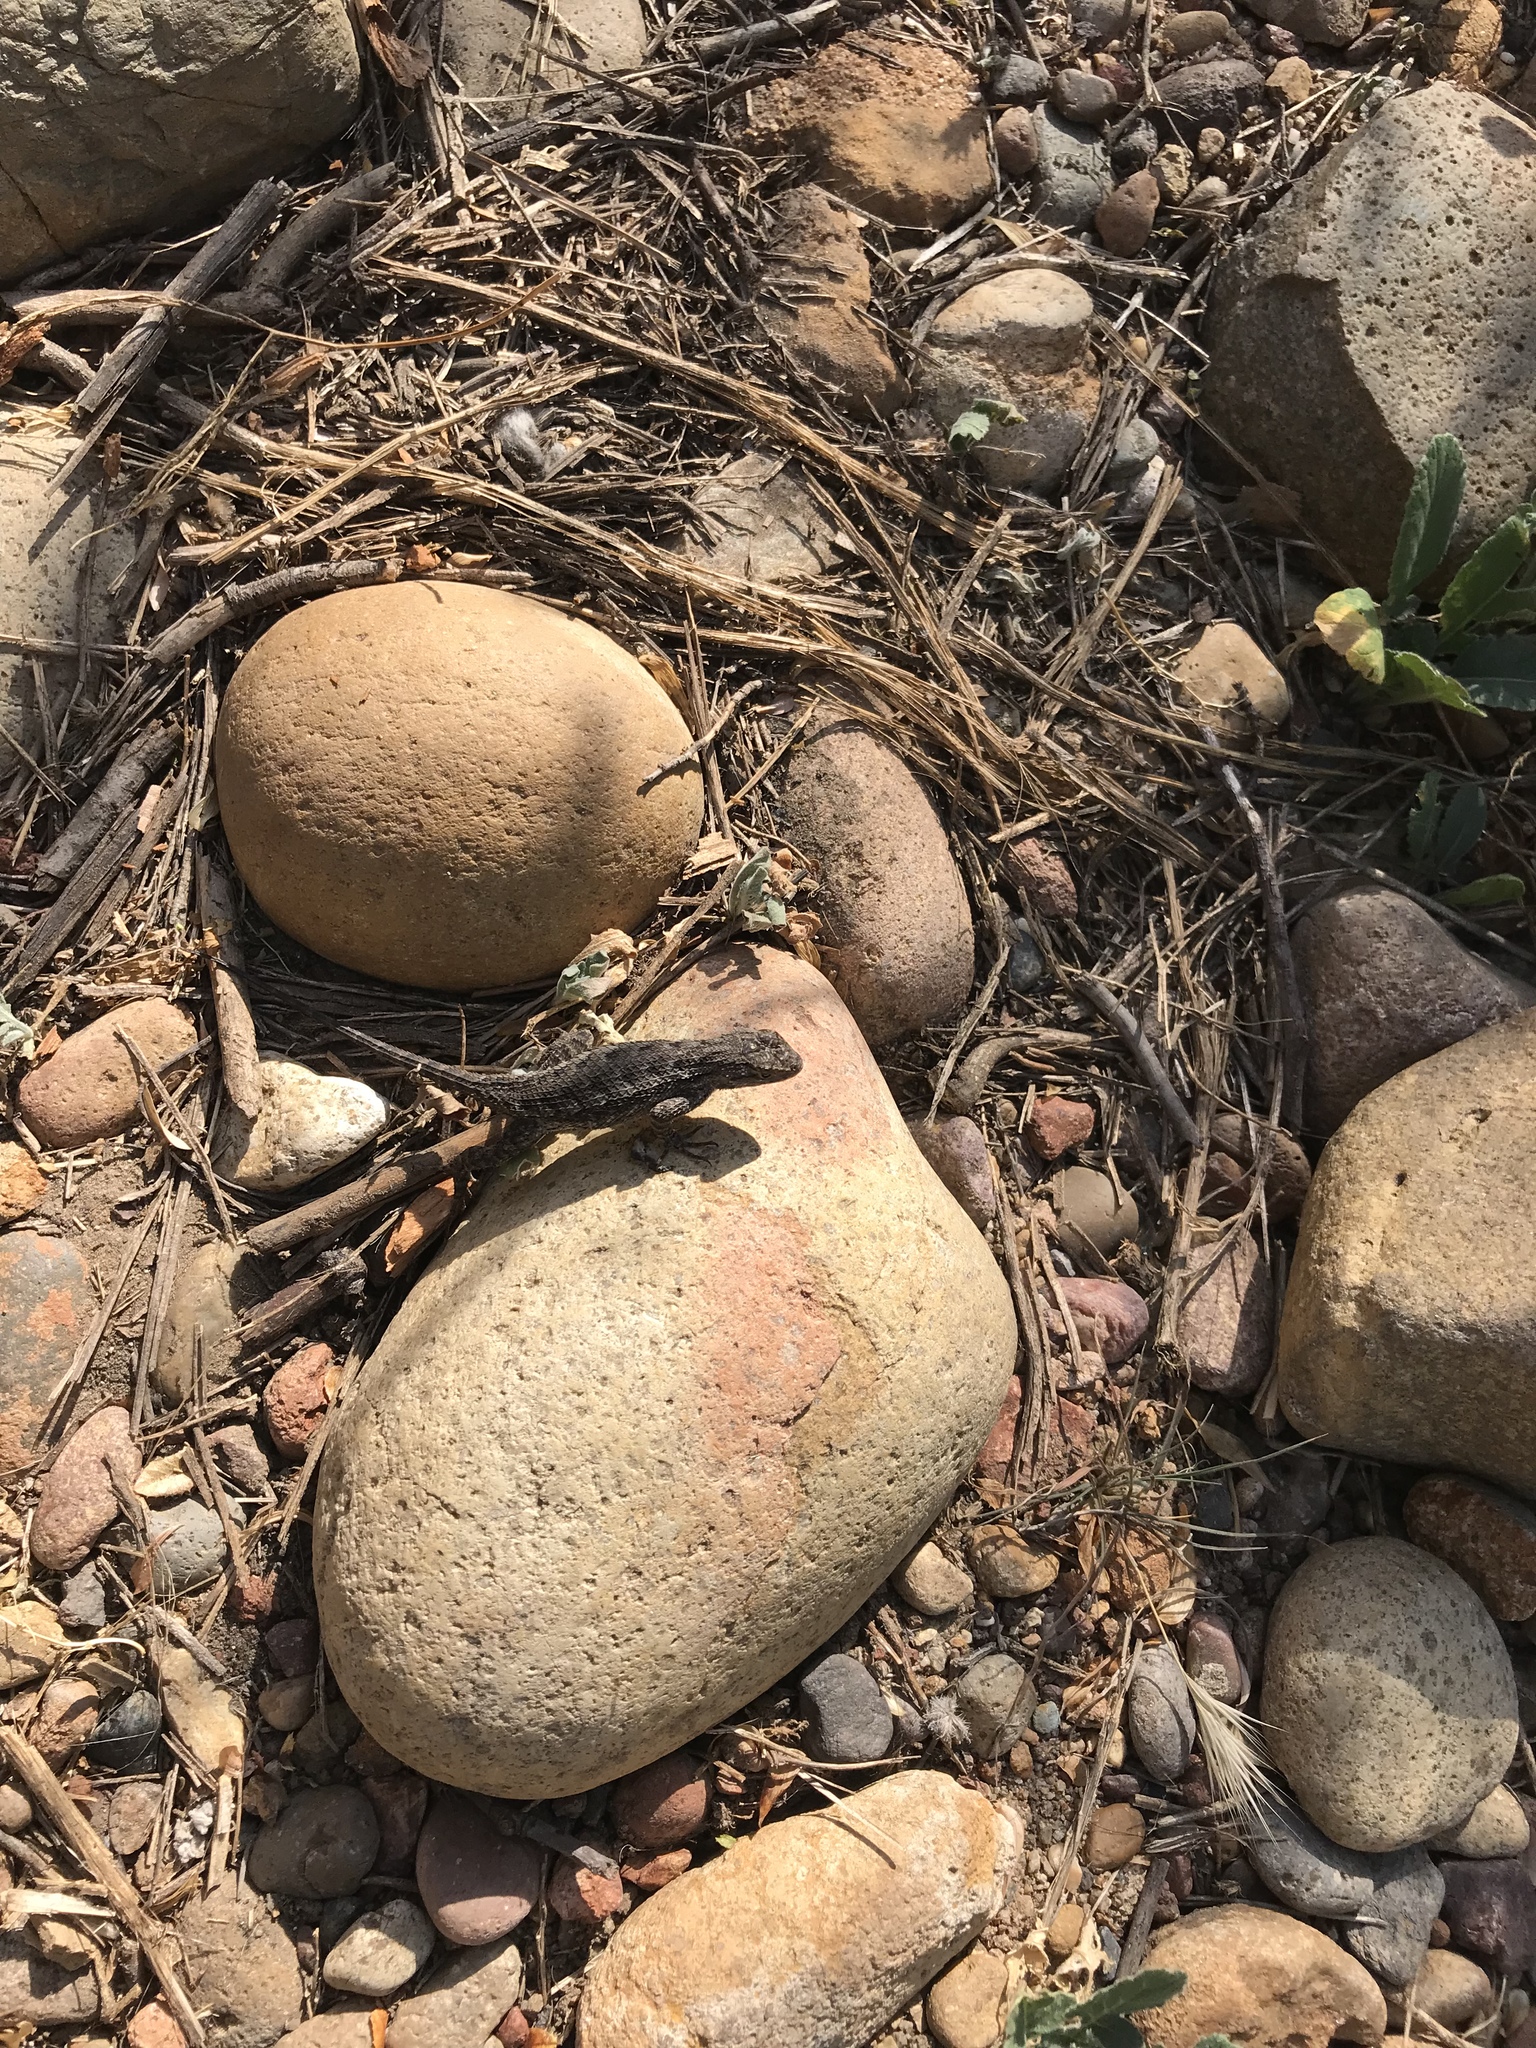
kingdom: Animalia
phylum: Chordata
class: Squamata
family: Phrynosomatidae
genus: Sceloporus
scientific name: Sceloporus occidentalis
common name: Western fence lizard
